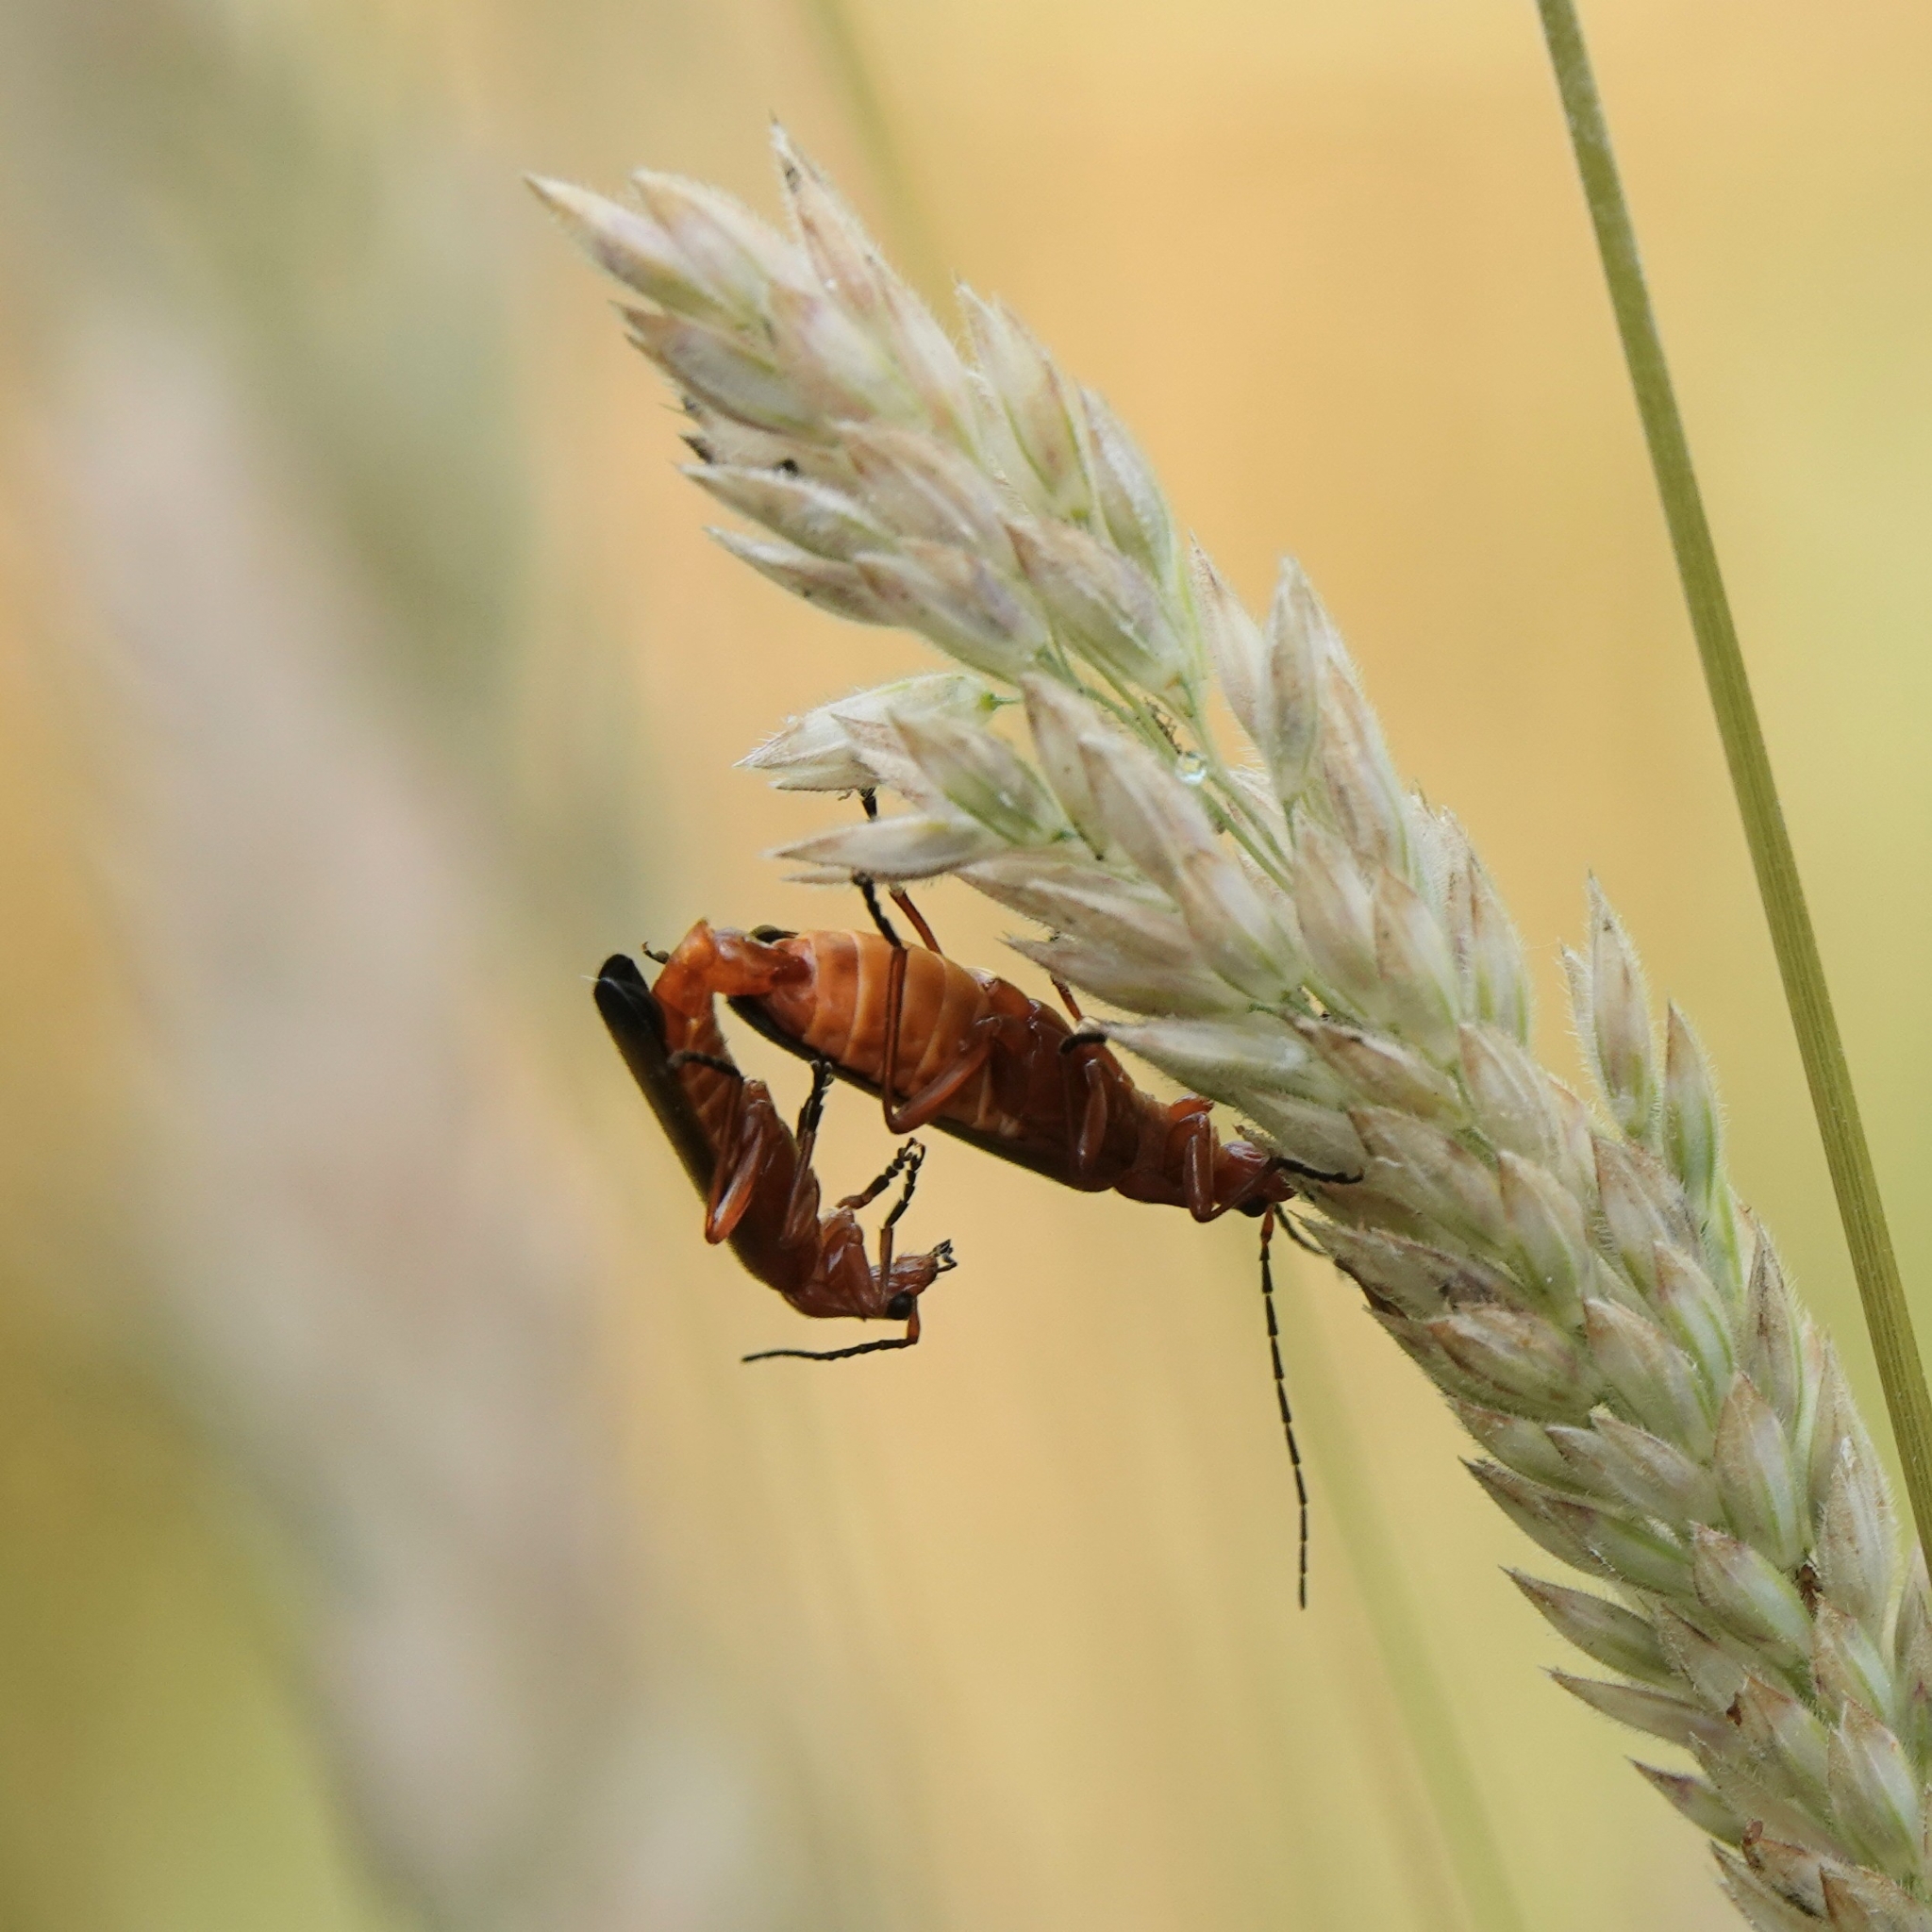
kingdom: Animalia
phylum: Arthropoda
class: Insecta
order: Coleoptera
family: Cantharidae
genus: Rhagonycha
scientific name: Rhagonycha fulva
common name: Common red soldier beetle
